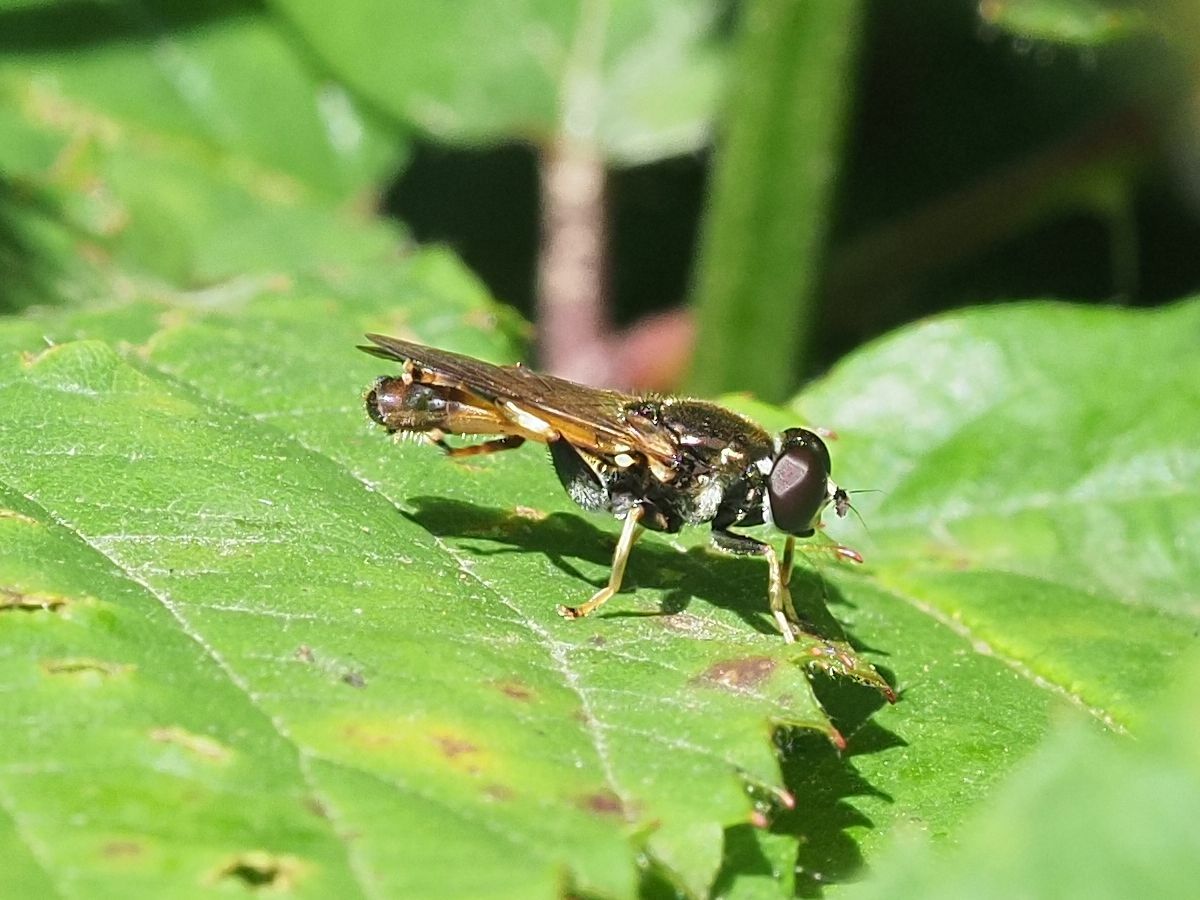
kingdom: Animalia
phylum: Arthropoda
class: Insecta
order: Diptera
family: Syrphidae
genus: Xylota
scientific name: Xylota segnis
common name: Brown-toed forest fly
